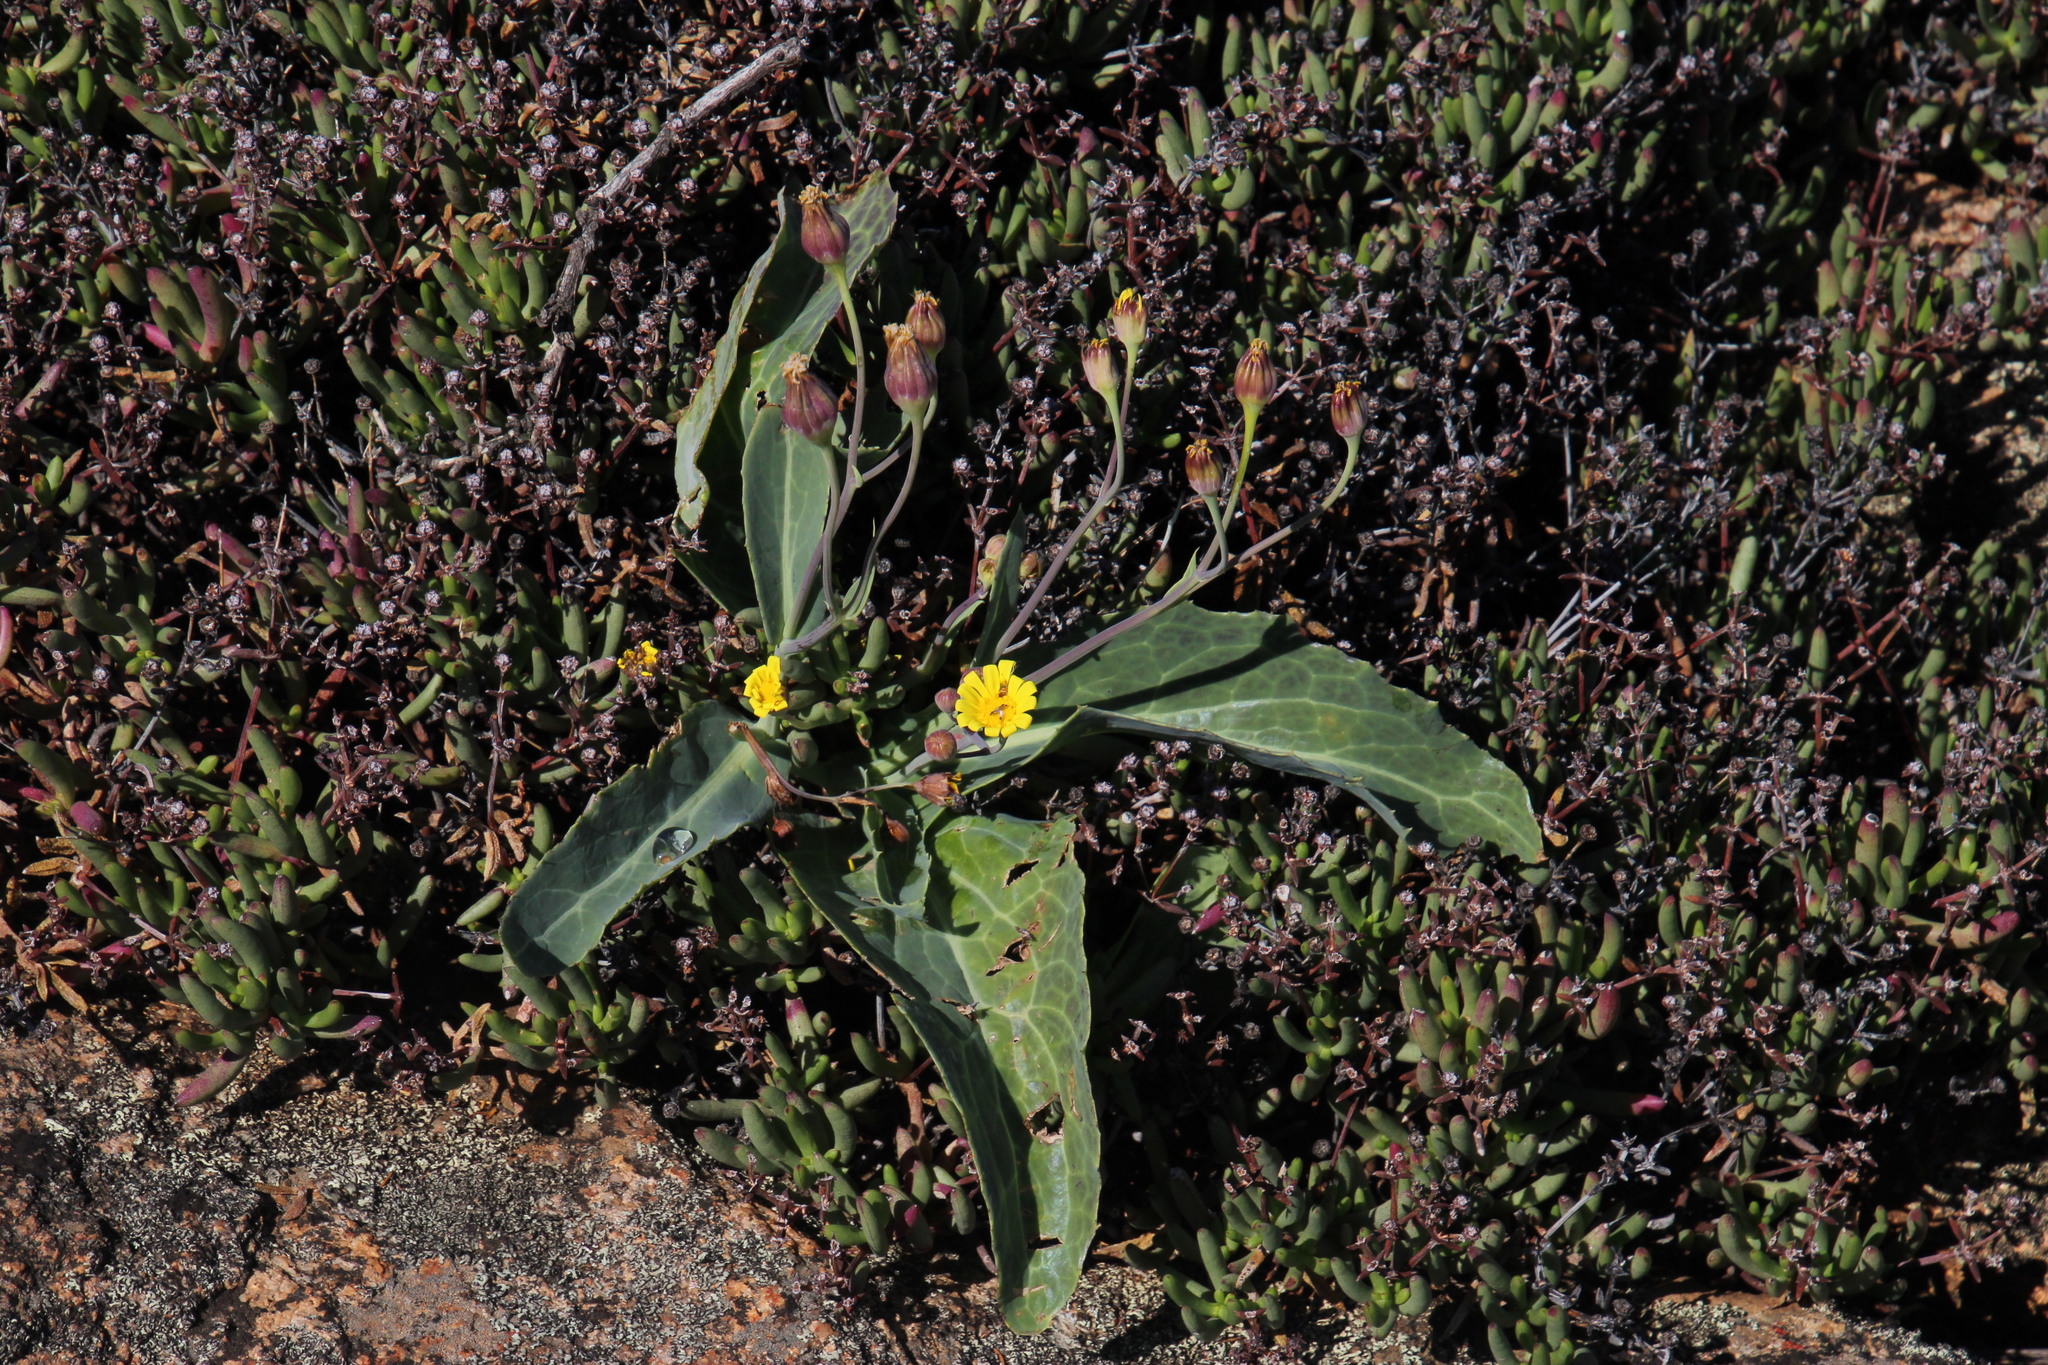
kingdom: Plantae
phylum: Tracheophyta
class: Magnoliopsida
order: Asterales
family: Asteraceae
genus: Othonna
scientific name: Othonna macrophylla
